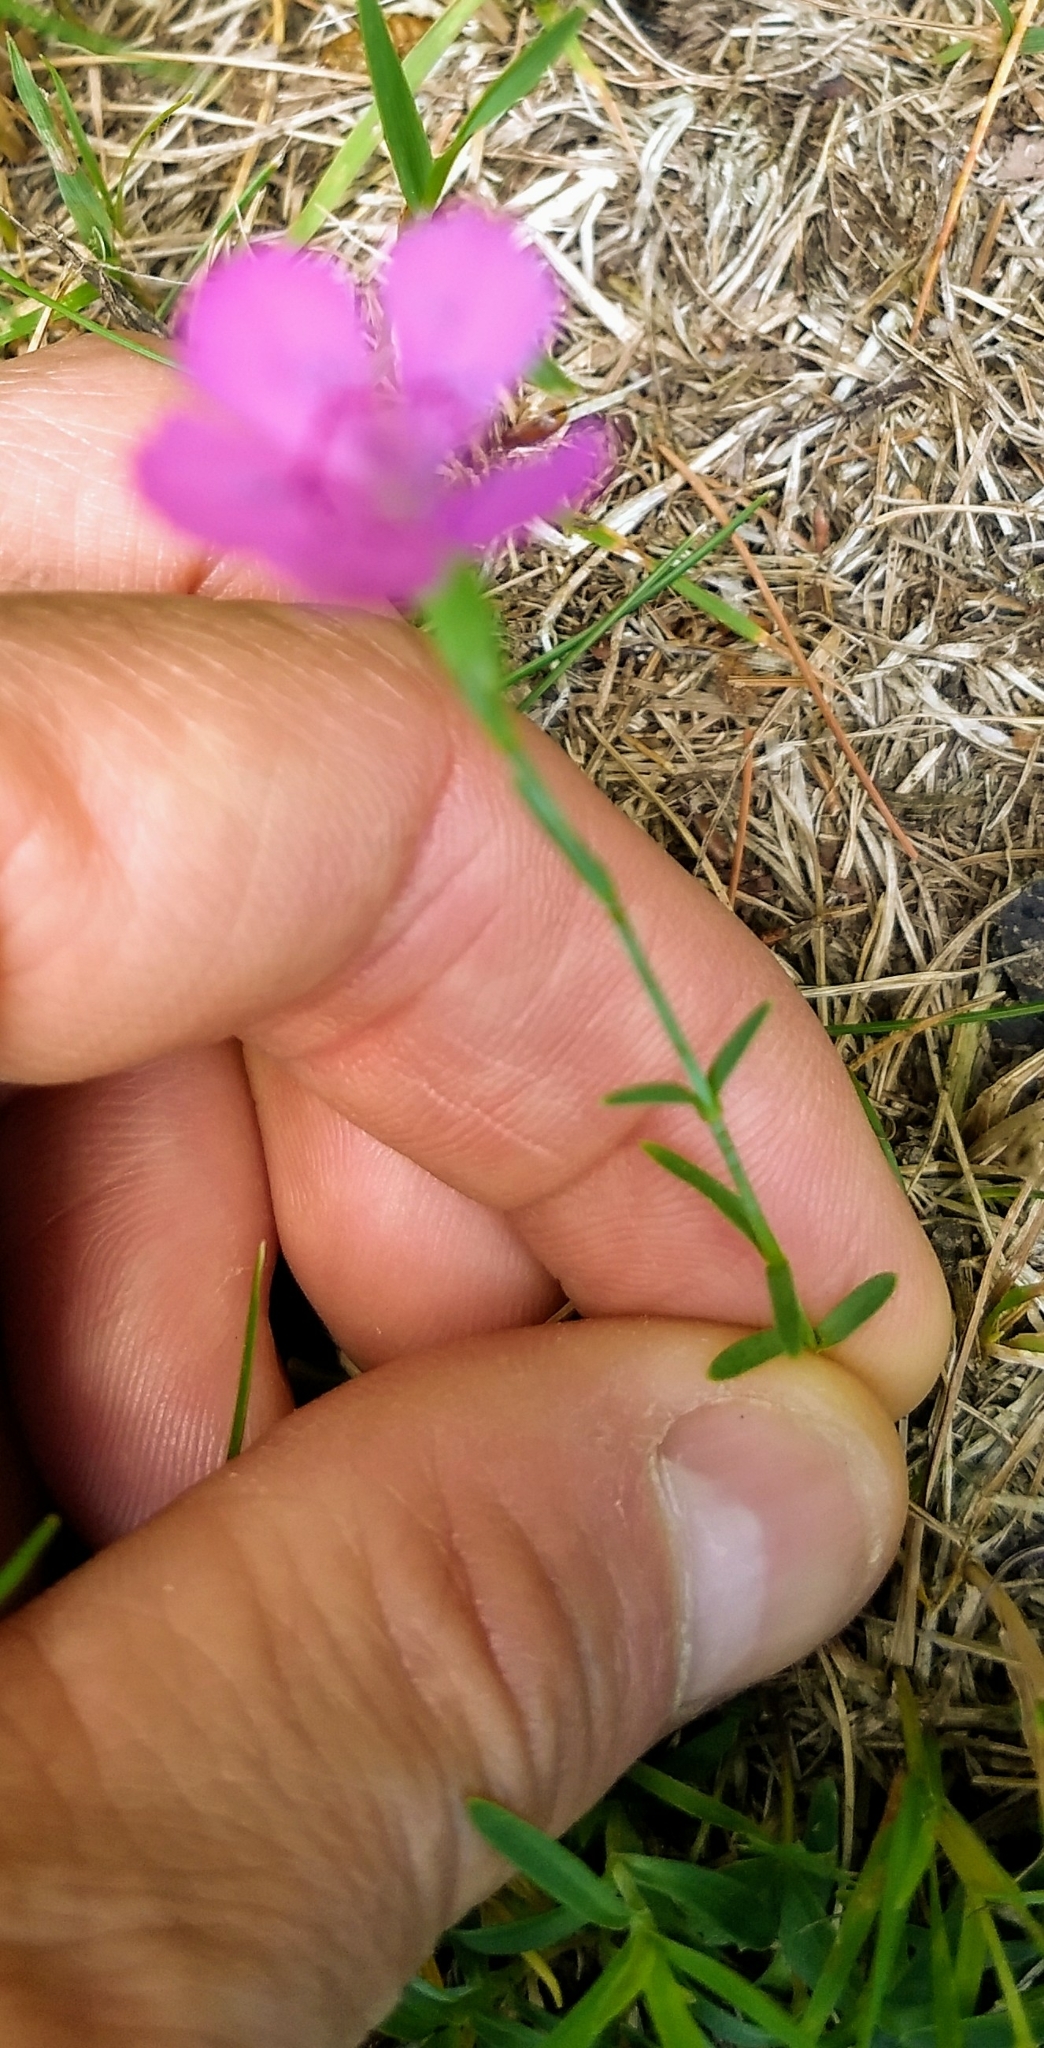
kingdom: Plantae
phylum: Tracheophyta
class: Magnoliopsida
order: Caryophyllales
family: Caryophyllaceae
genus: Dianthus
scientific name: Dianthus deltoides
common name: Maiden pink
